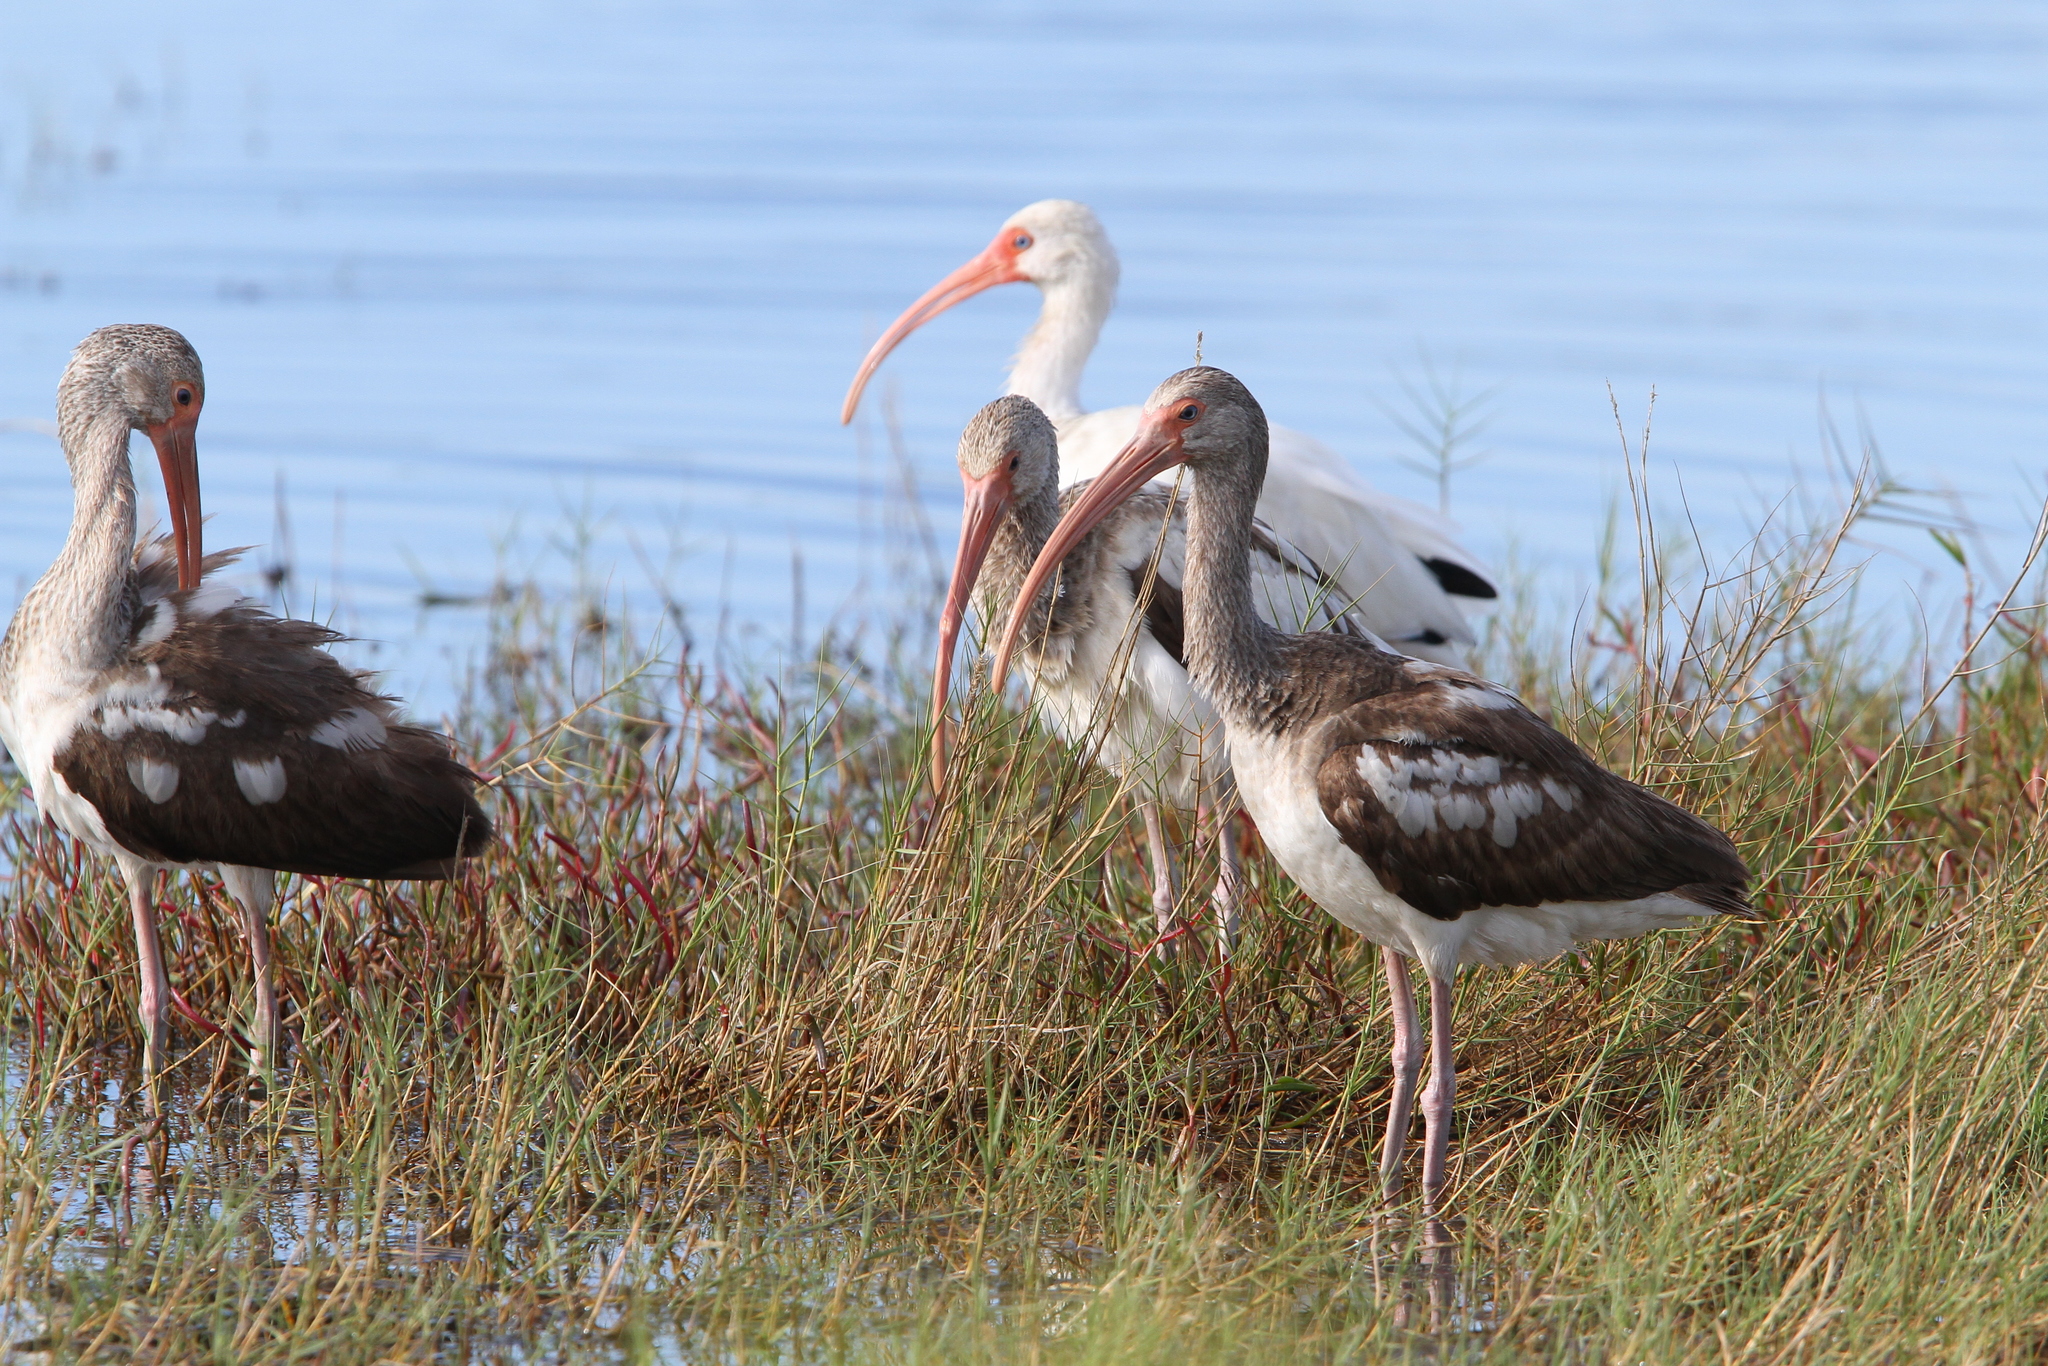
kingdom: Animalia
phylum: Chordata
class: Aves
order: Pelecaniformes
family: Threskiornithidae
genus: Eudocimus
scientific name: Eudocimus albus
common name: White ibis
